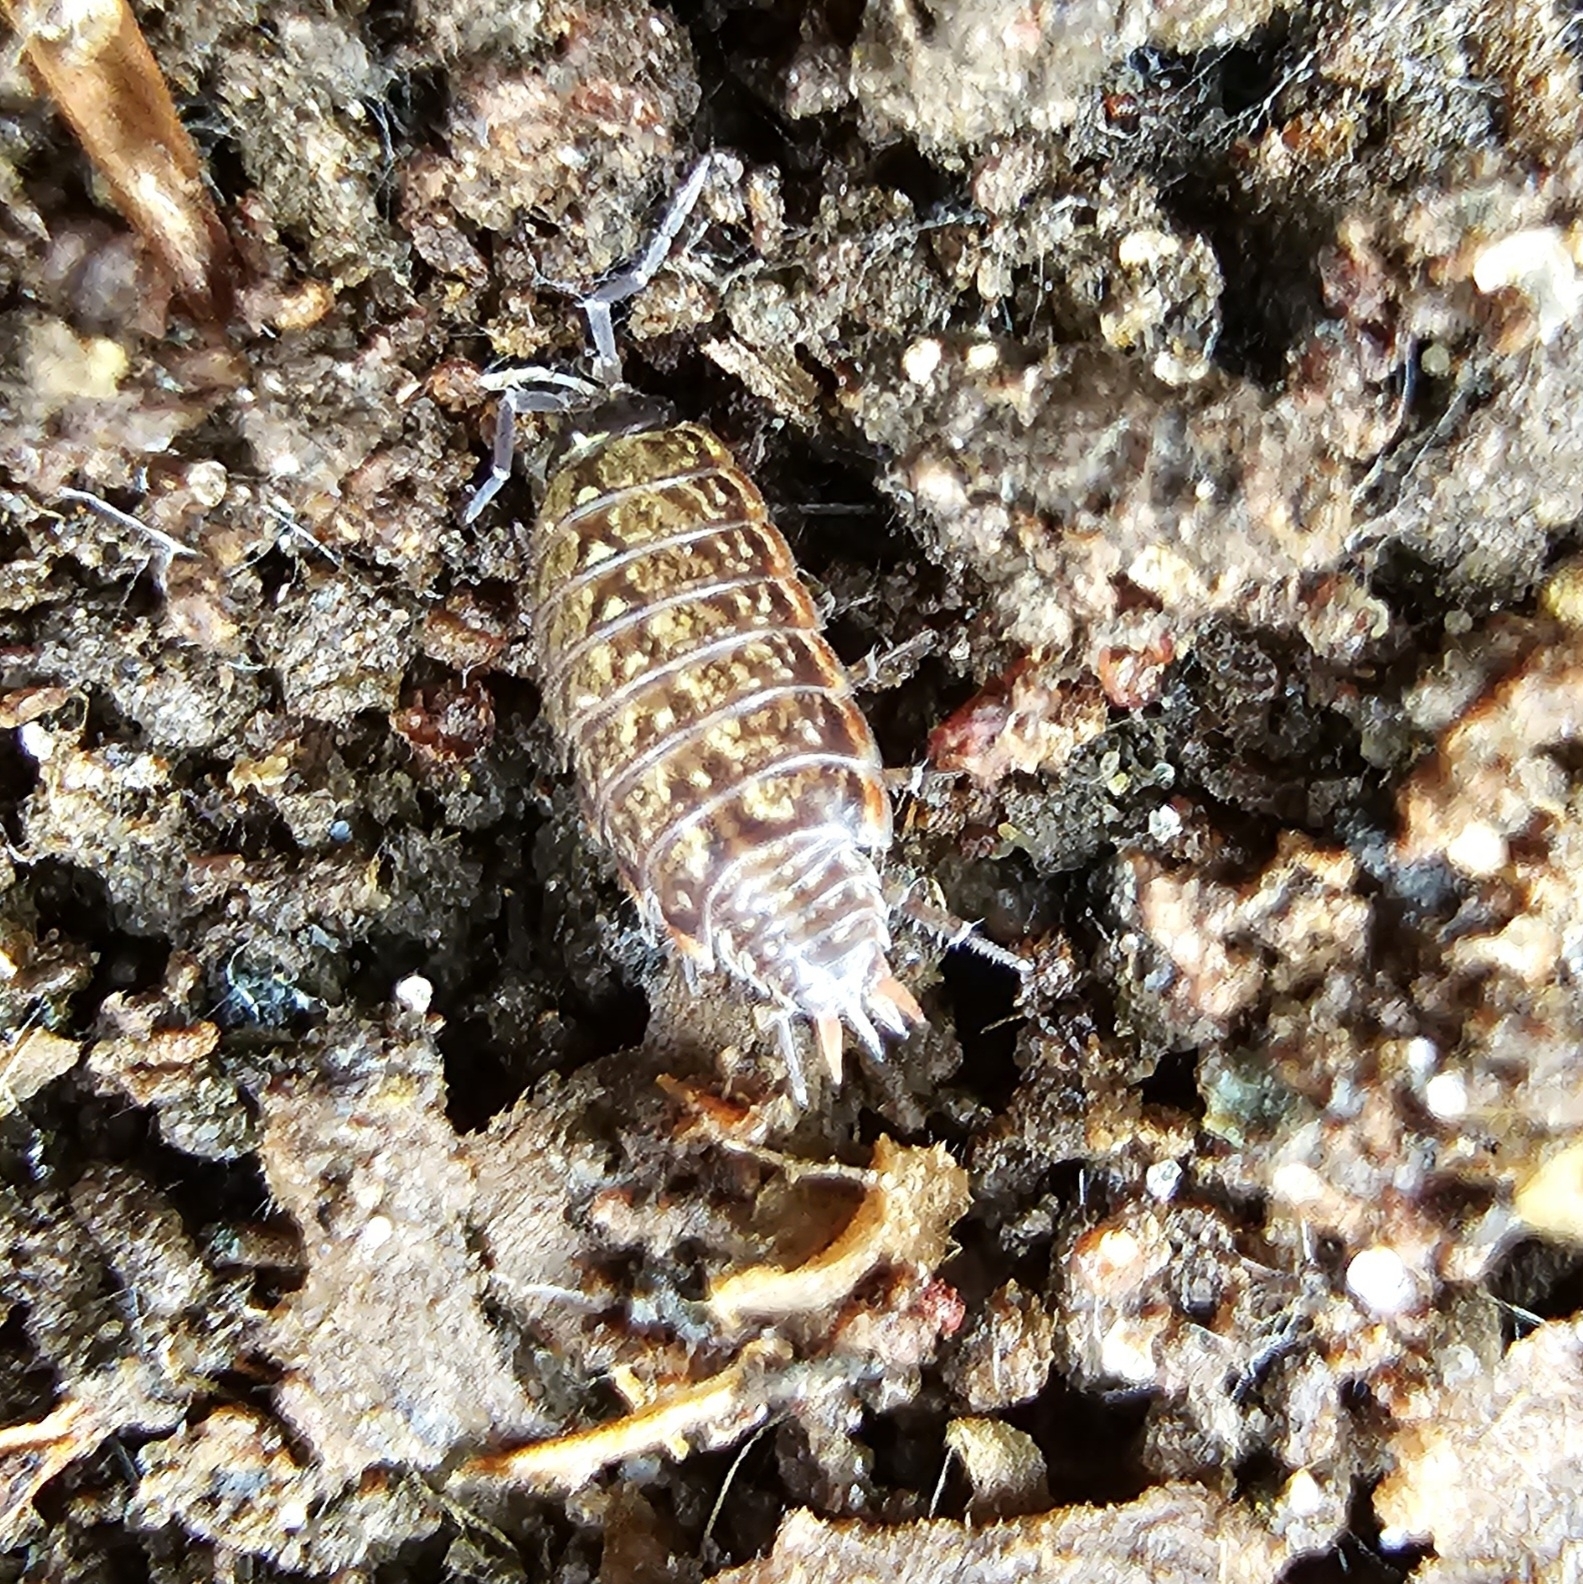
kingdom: Animalia
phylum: Arthropoda
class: Malacostraca
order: Isopoda
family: Philosciidae
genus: Philoscia
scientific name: Philoscia muscorum
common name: Common striped woodlouse
